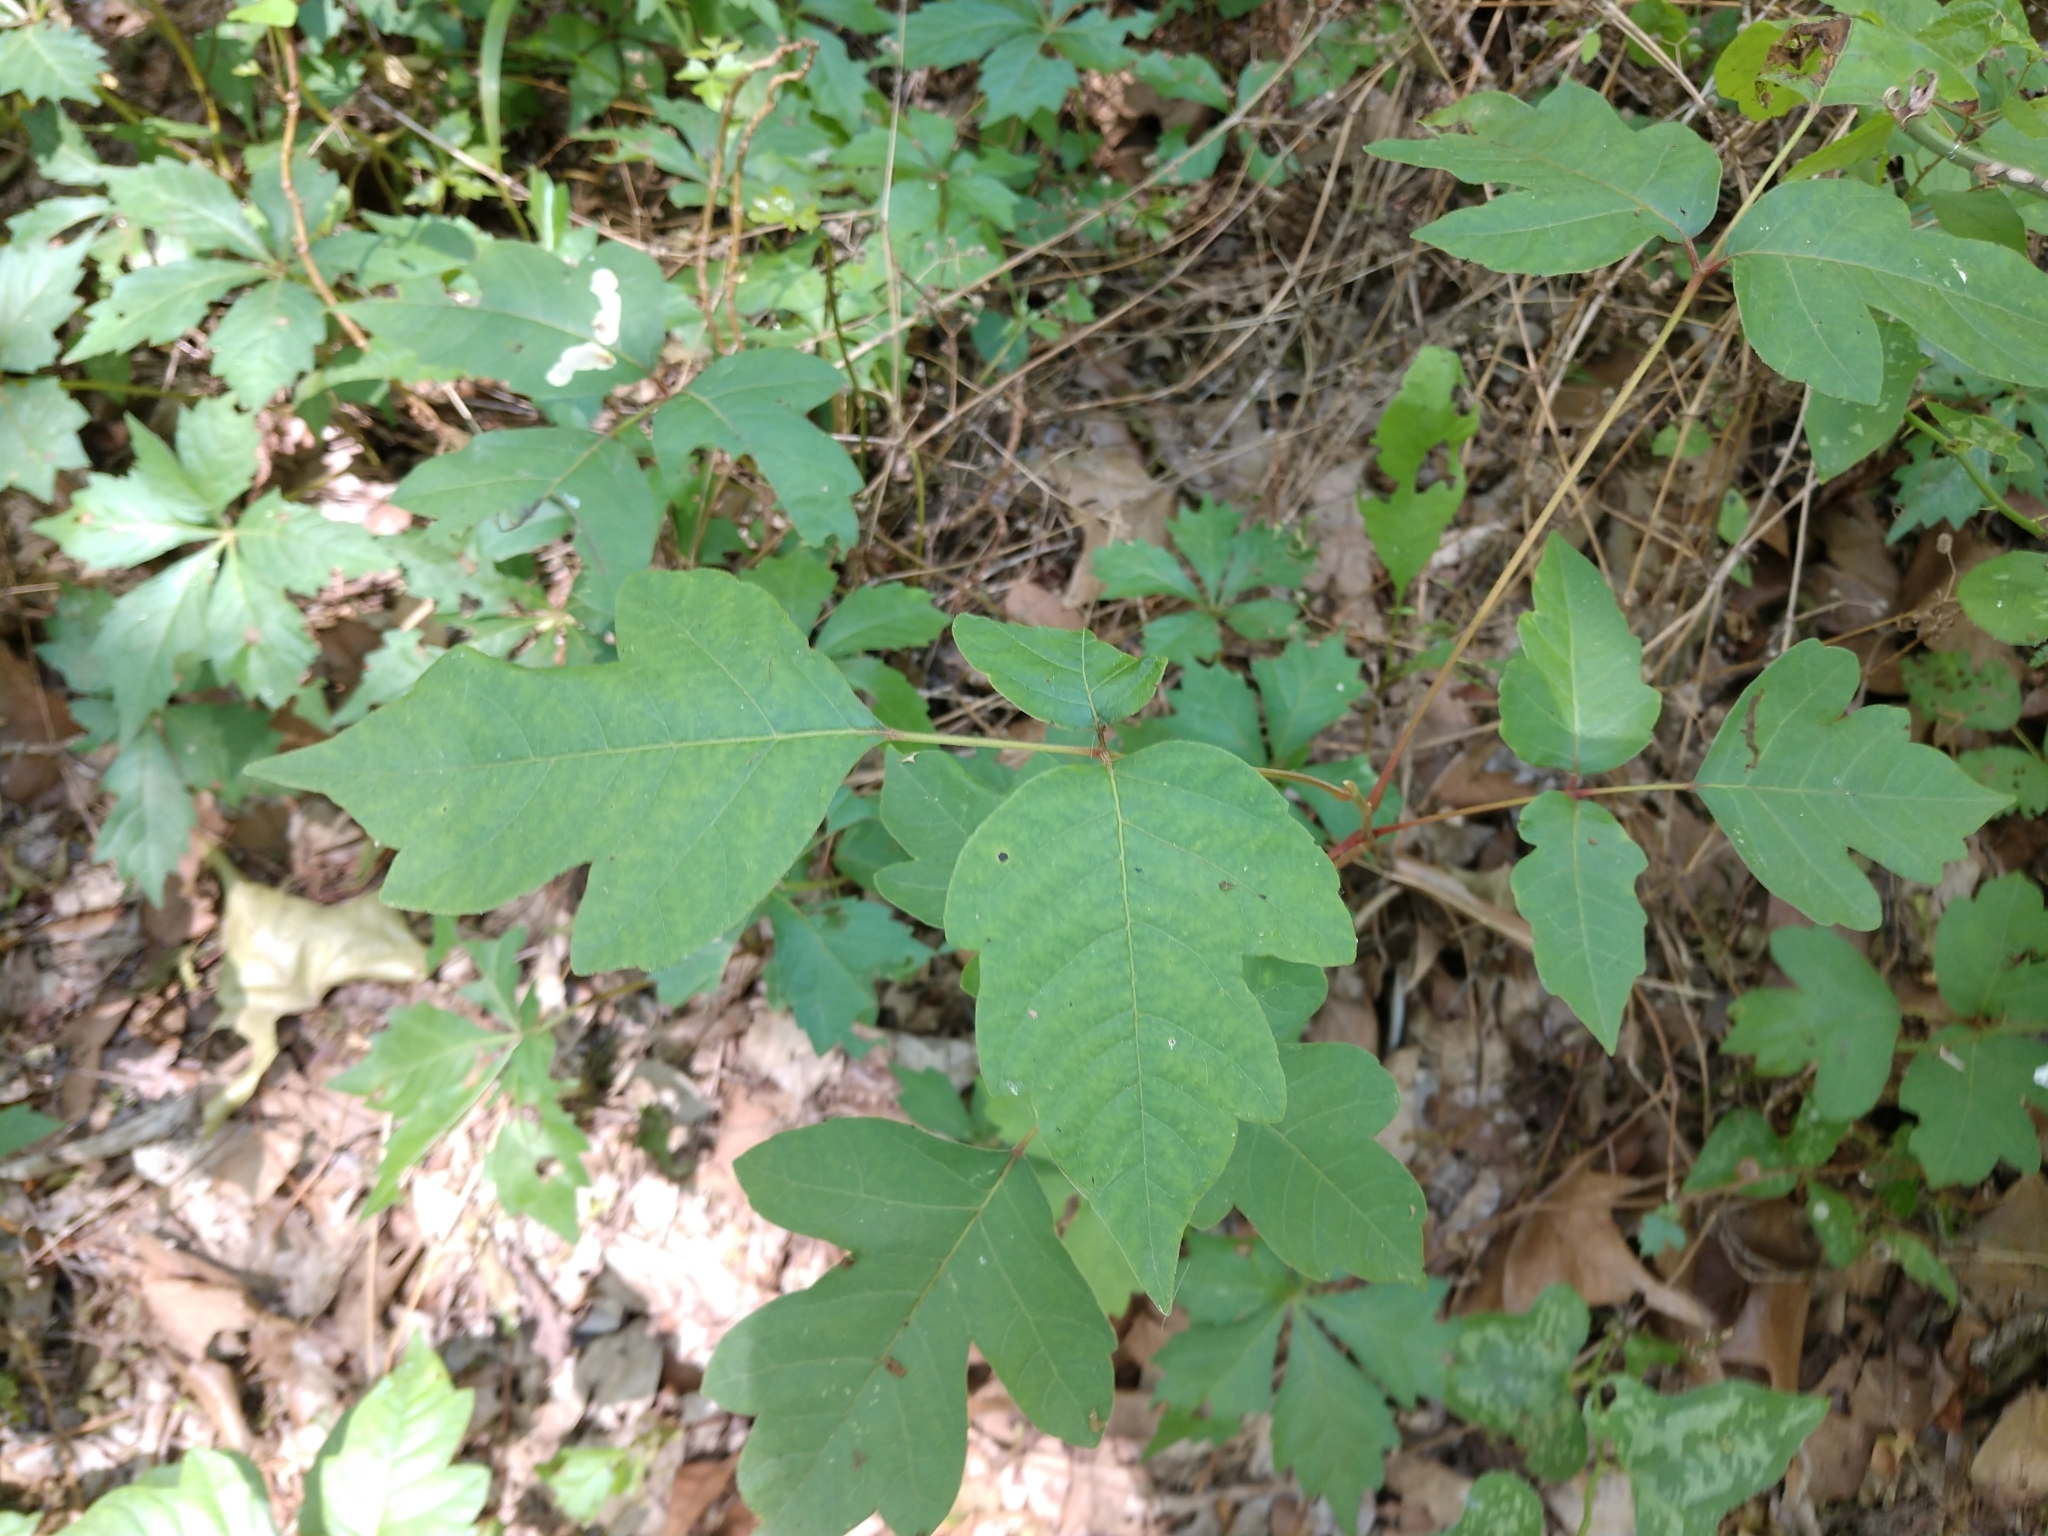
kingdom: Plantae
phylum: Tracheophyta
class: Magnoliopsida
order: Sapindales
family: Anacardiaceae
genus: Toxicodendron
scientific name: Toxicodendron radicans
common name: Poison ivy
